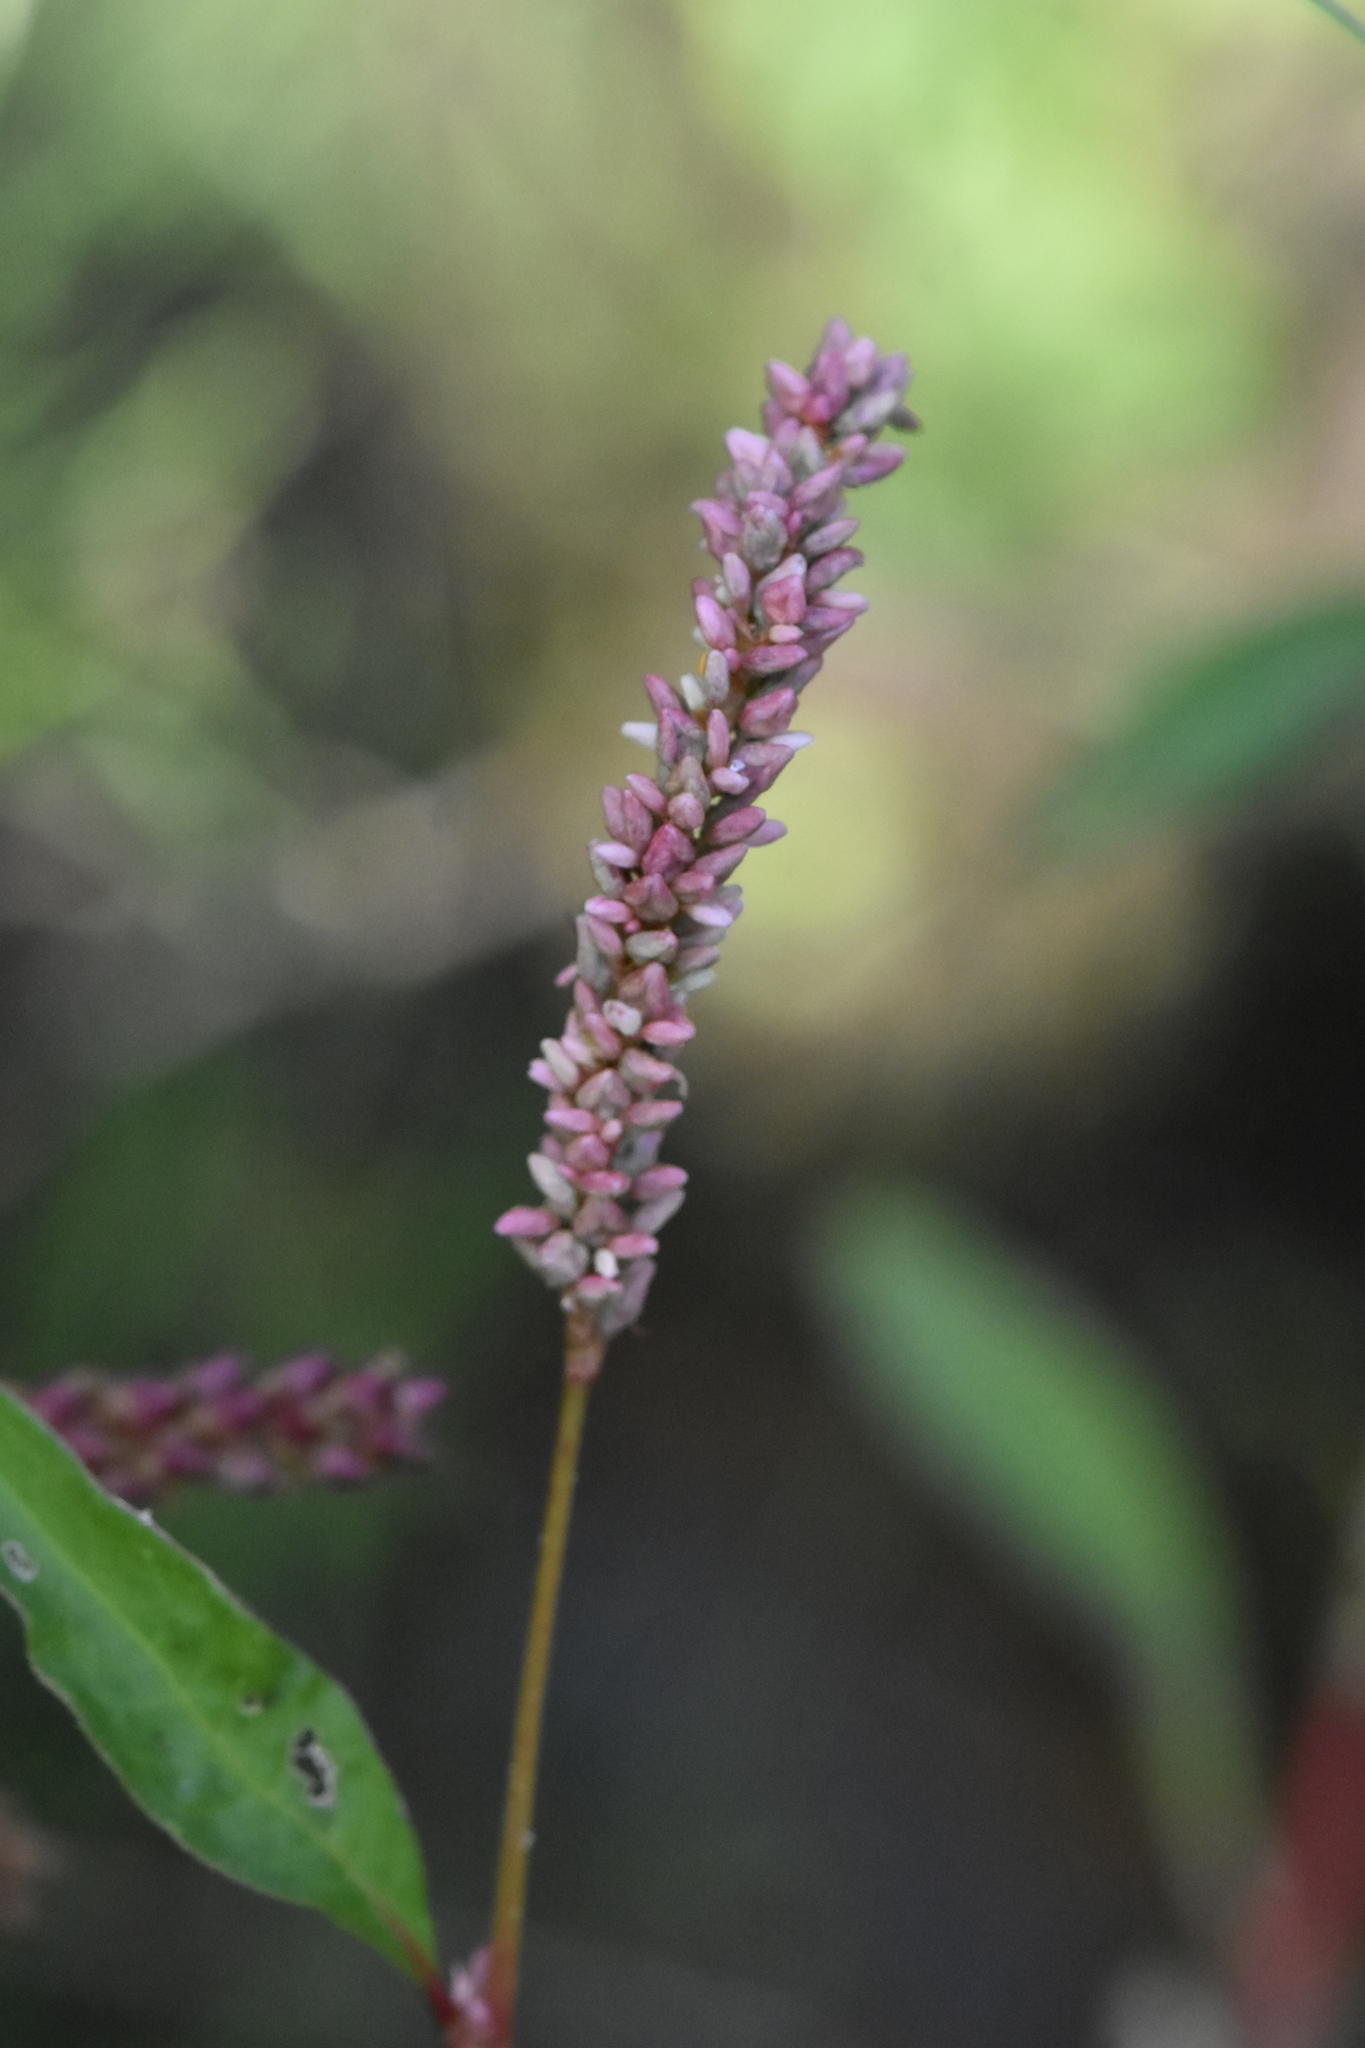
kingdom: Plantae
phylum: Tracheophyta
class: Magnoliopsida
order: Caryophyllales
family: Polygonaceae
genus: Persicaria
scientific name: Persicaria lapathifolia
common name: Curlytop knotweed
